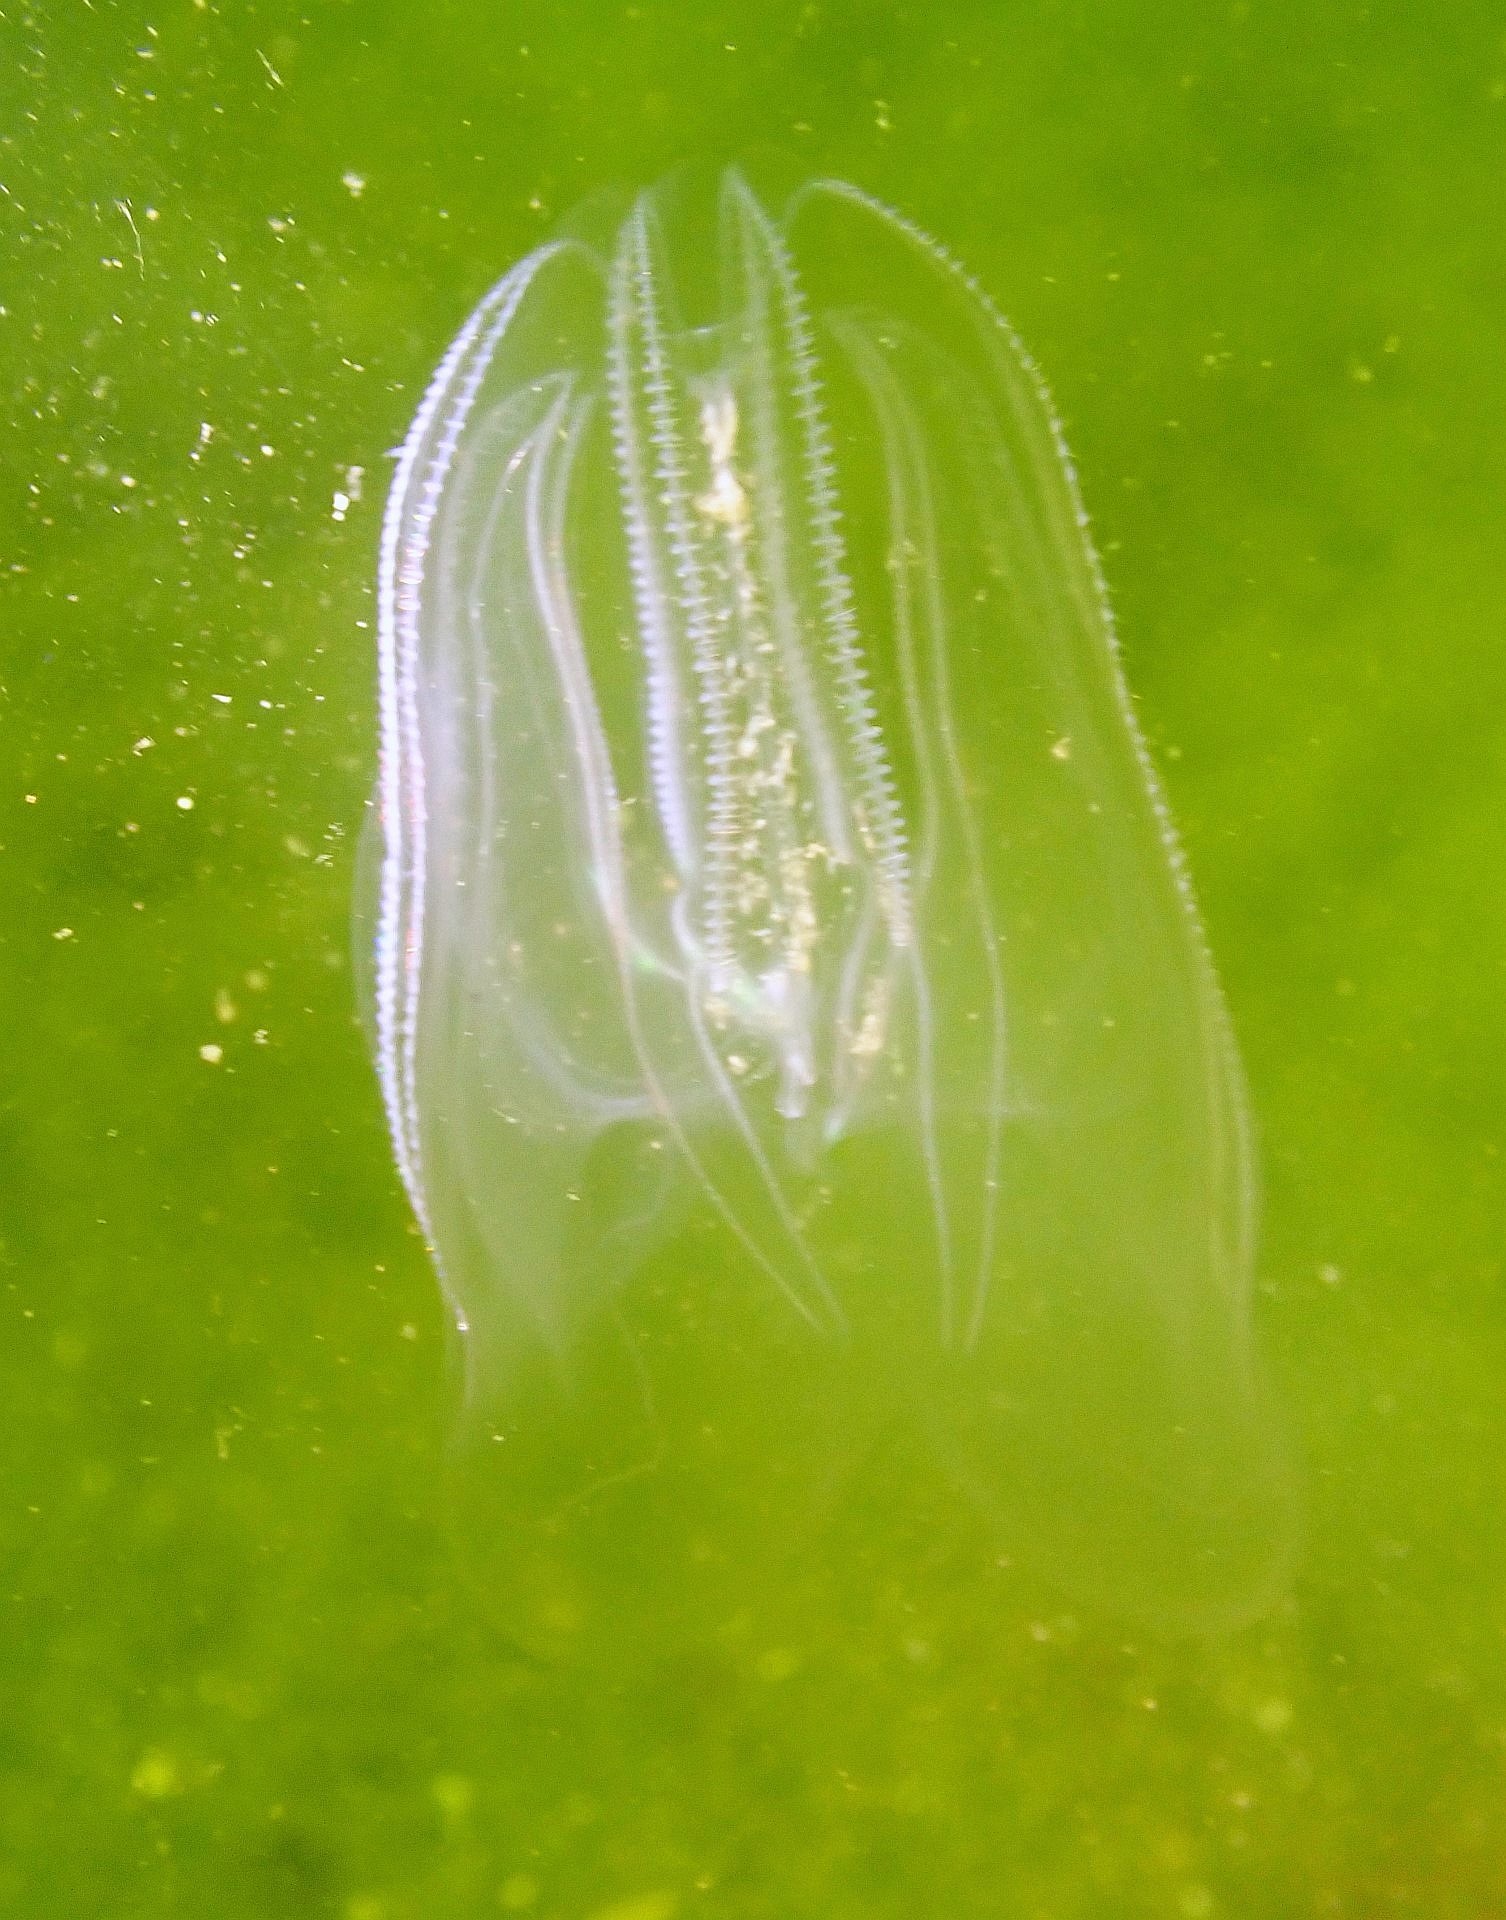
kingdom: Animalia
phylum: Ctenophora
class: Tentaculata
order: Lobata
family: Bolinopsidae
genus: Mnemiopsis
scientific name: Mnemiopsis leidyi
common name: American comb jelly
